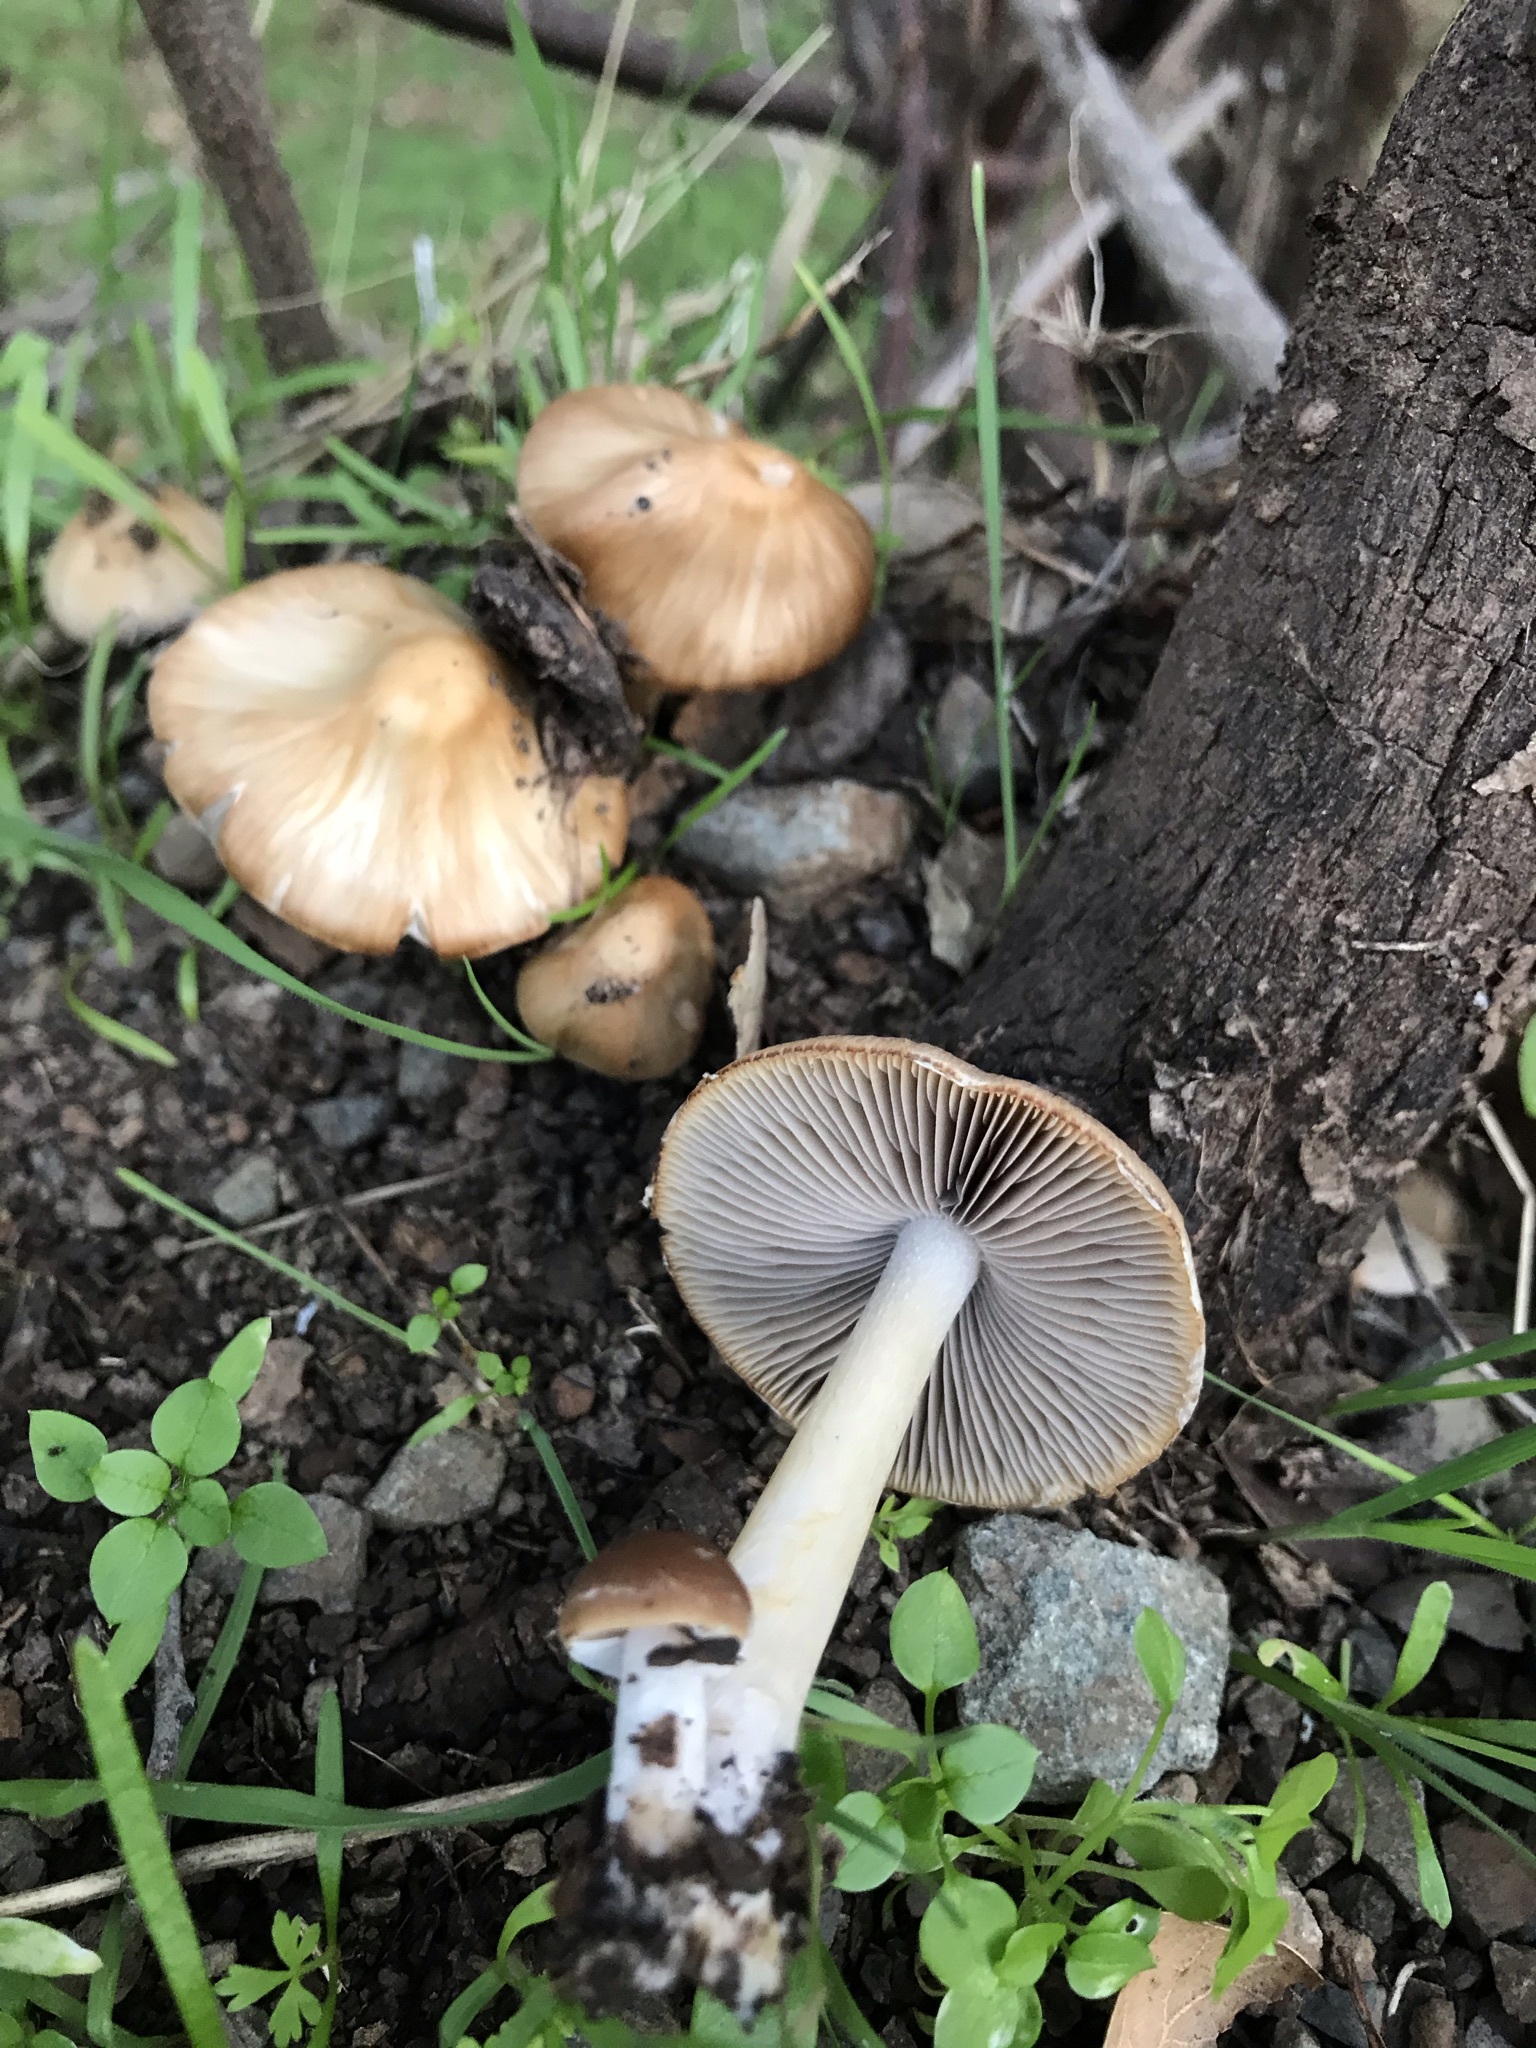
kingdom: Fungi
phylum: Basidiomycota
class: Agaricomycetes
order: Agaricales
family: Psathyrellaceae
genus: Psathyrella
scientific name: Psathyrella praetenuis
